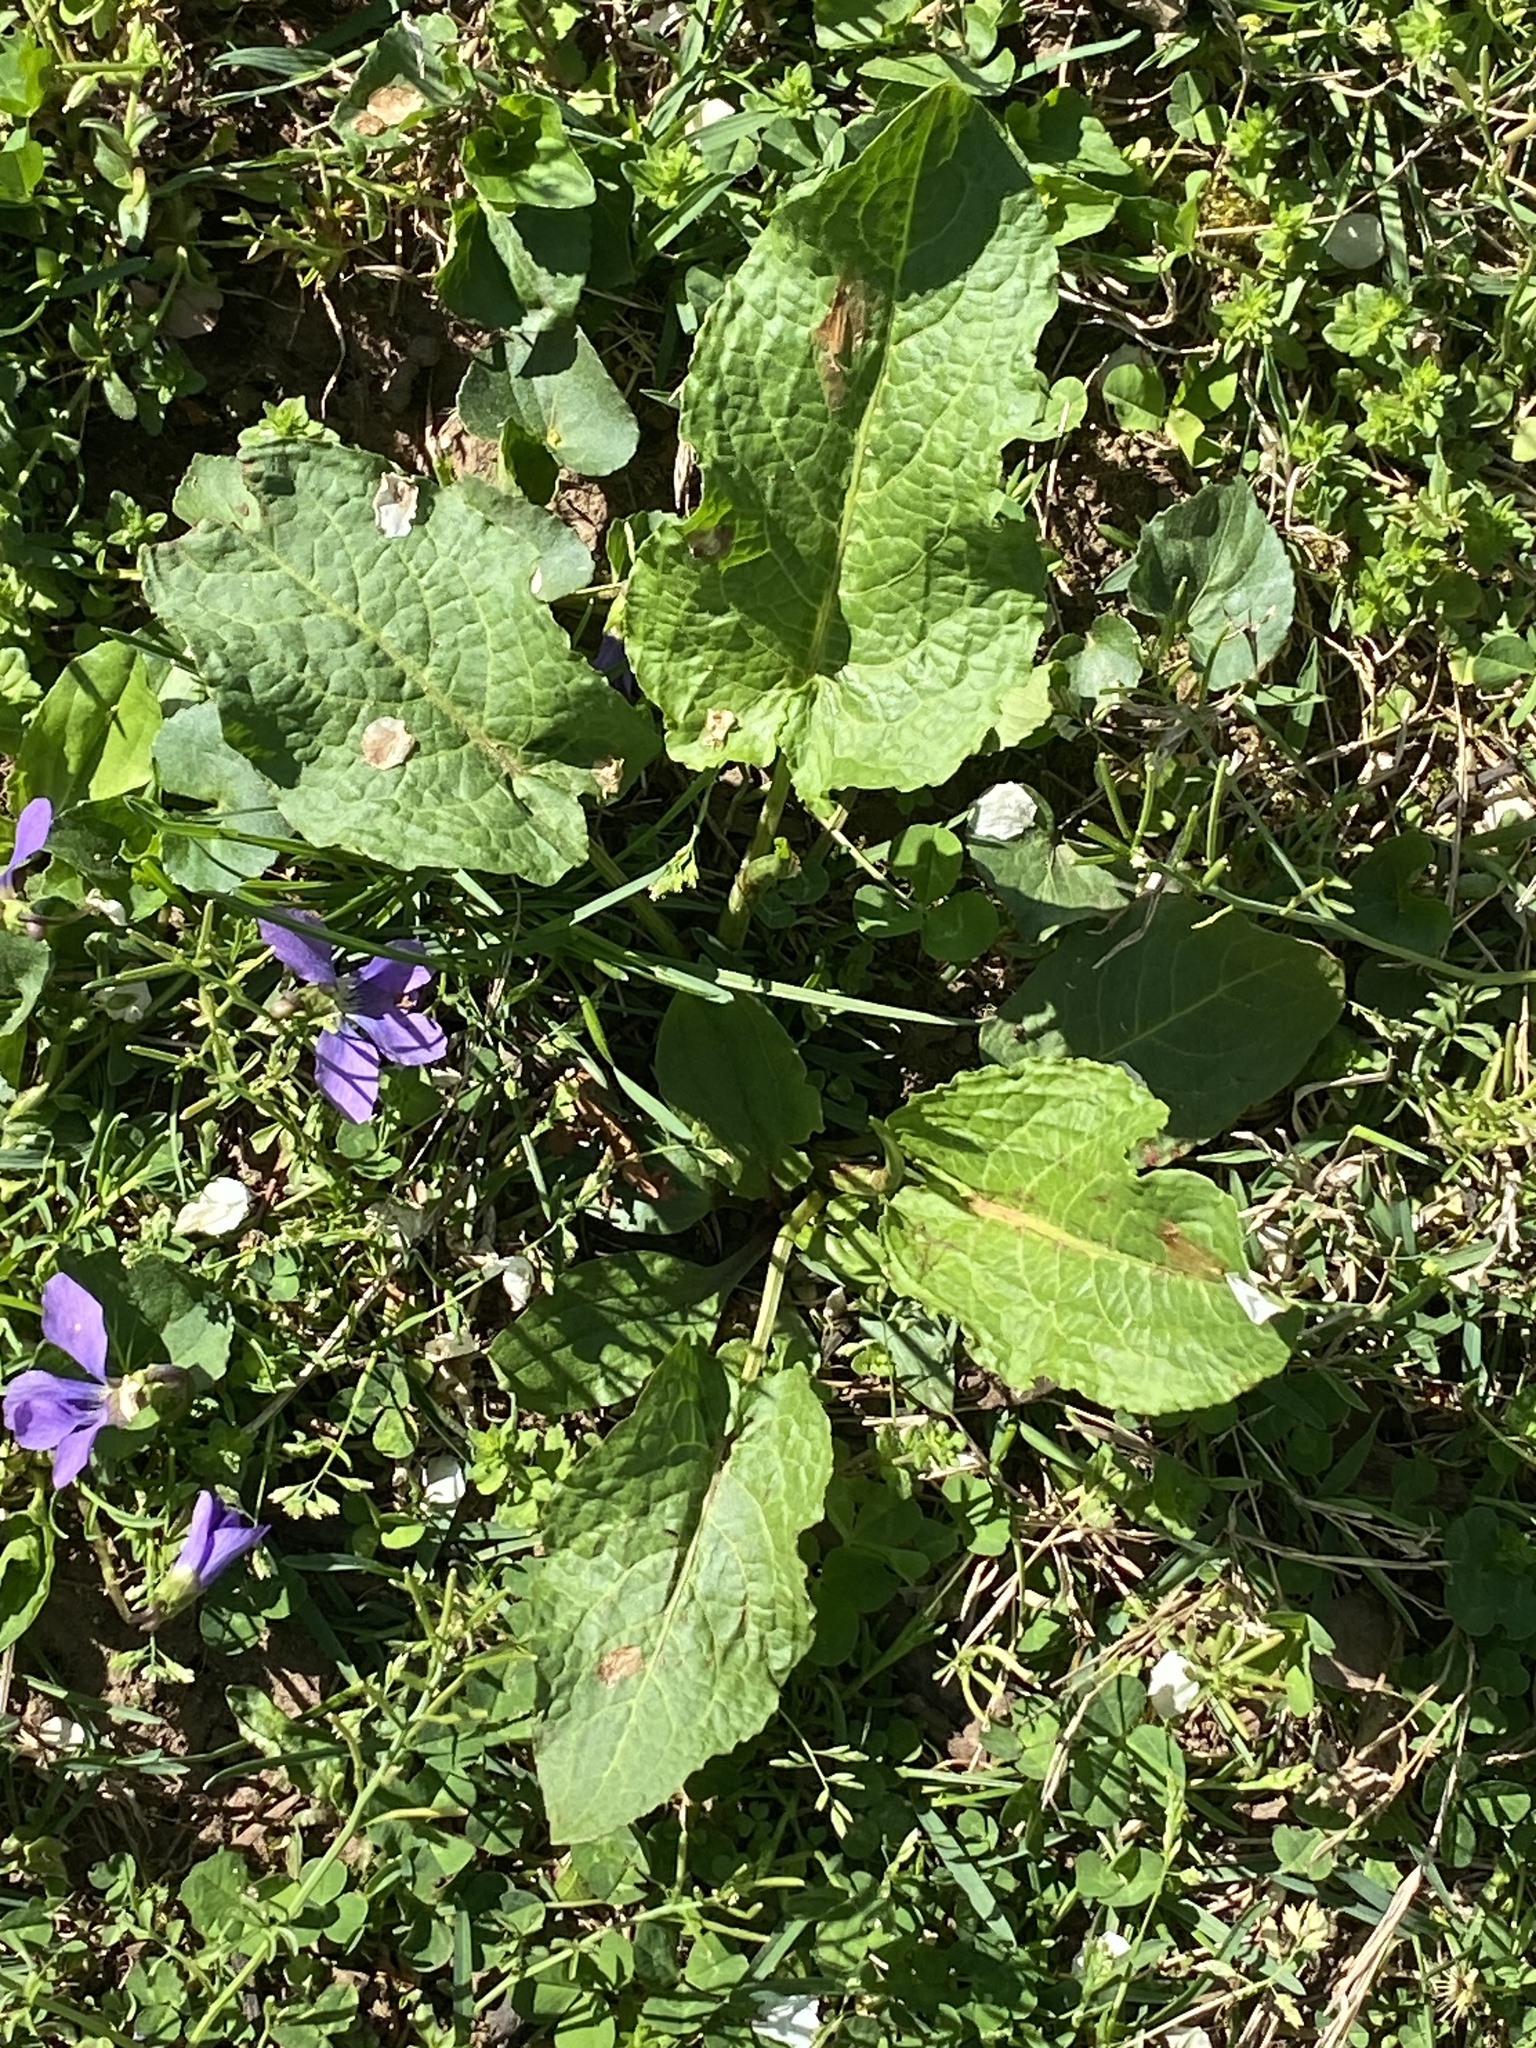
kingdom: Plantae
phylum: Tracheophyta
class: Magnoliopsida
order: Caryophyllales
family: Polygonaceae
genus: Rumex
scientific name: Rumex obtusifolius
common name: Bitter dock
